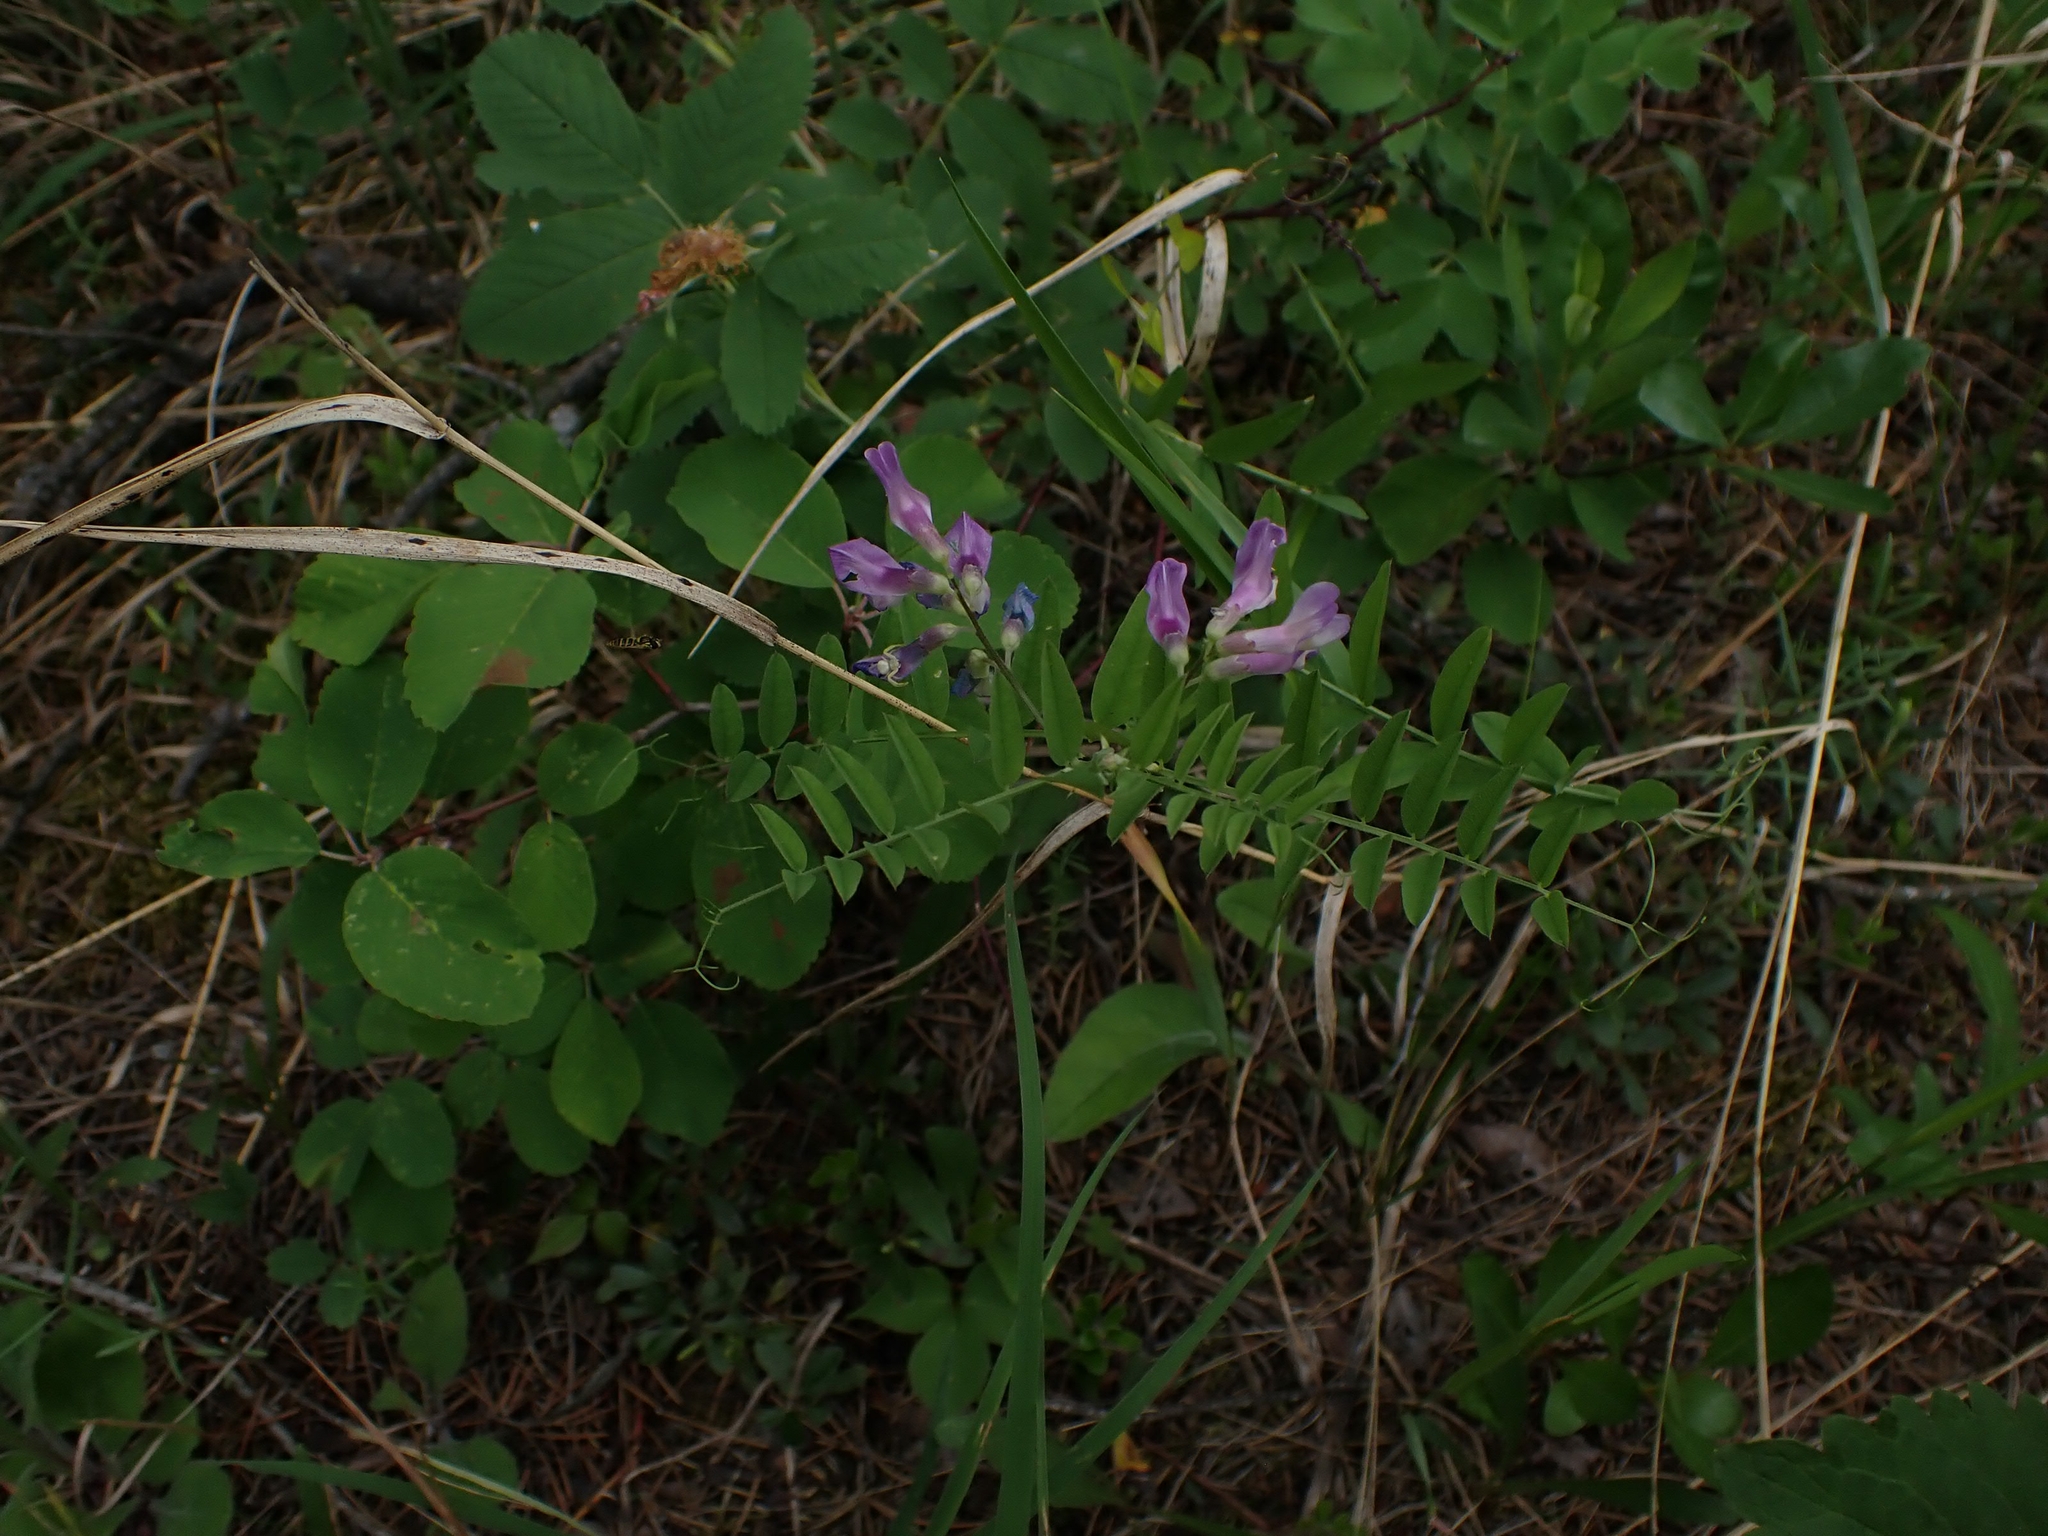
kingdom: Plantae
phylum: Tracheophyta
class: Magnoliopsida
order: Fabales
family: Fabaceae
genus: Vicia
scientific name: Vicia americana
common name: American vetch
